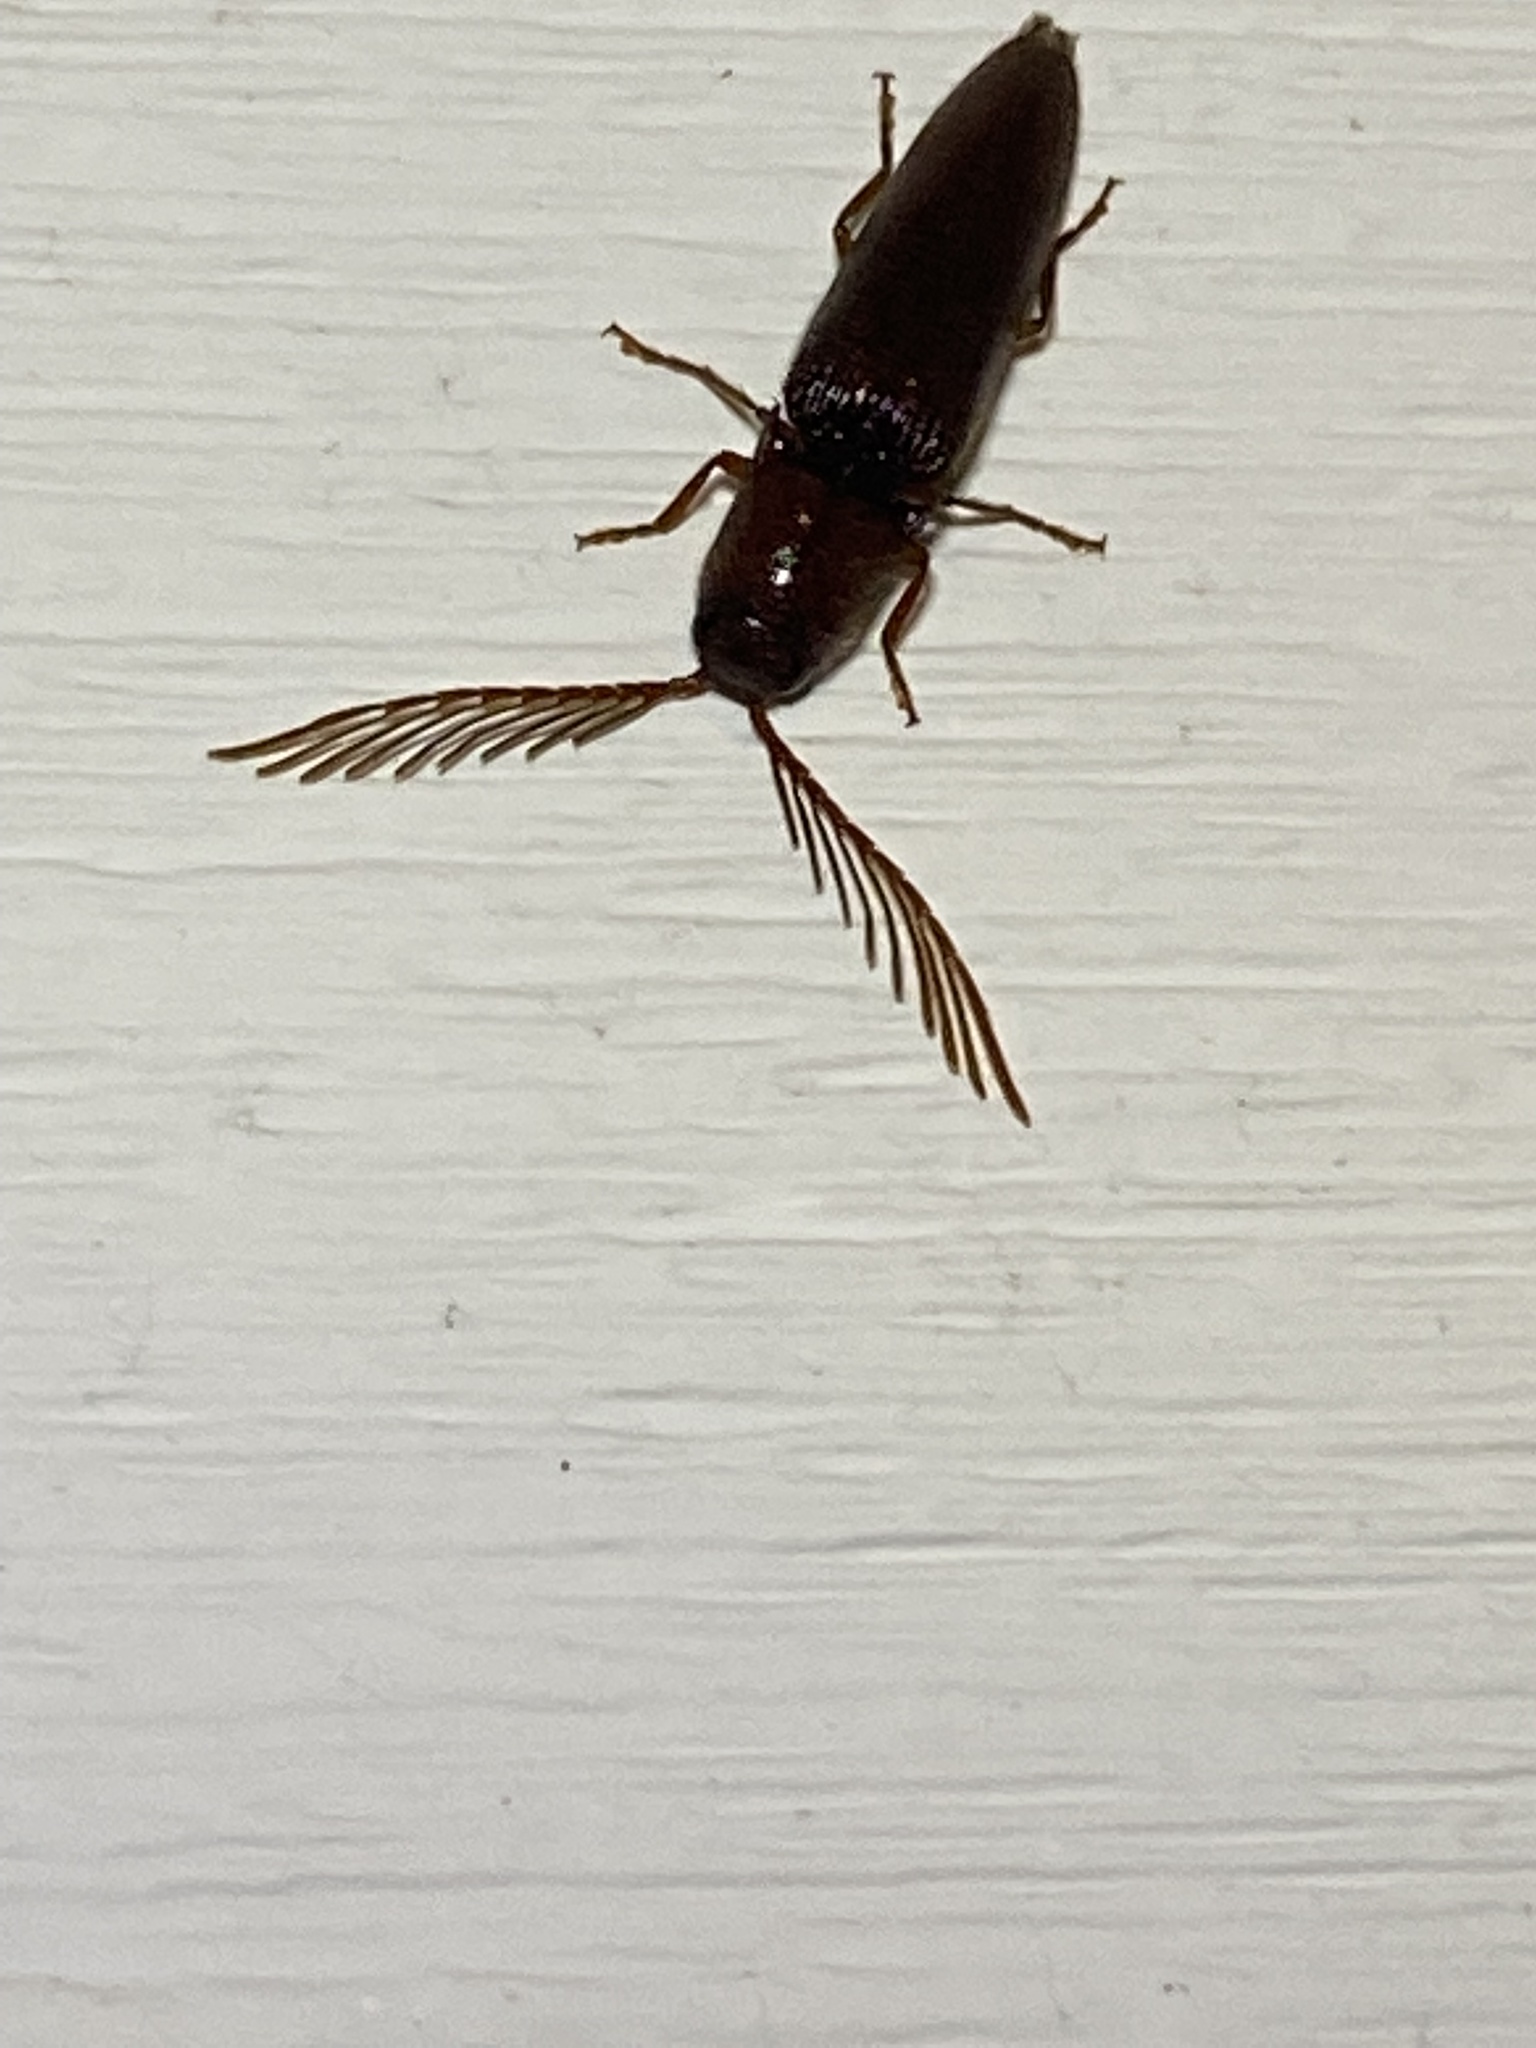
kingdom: Animalia
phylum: Arthropoda
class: Insecta
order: Coleoptera
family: Elateridae
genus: Dicrepidius
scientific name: Dicrepidius palmatus
